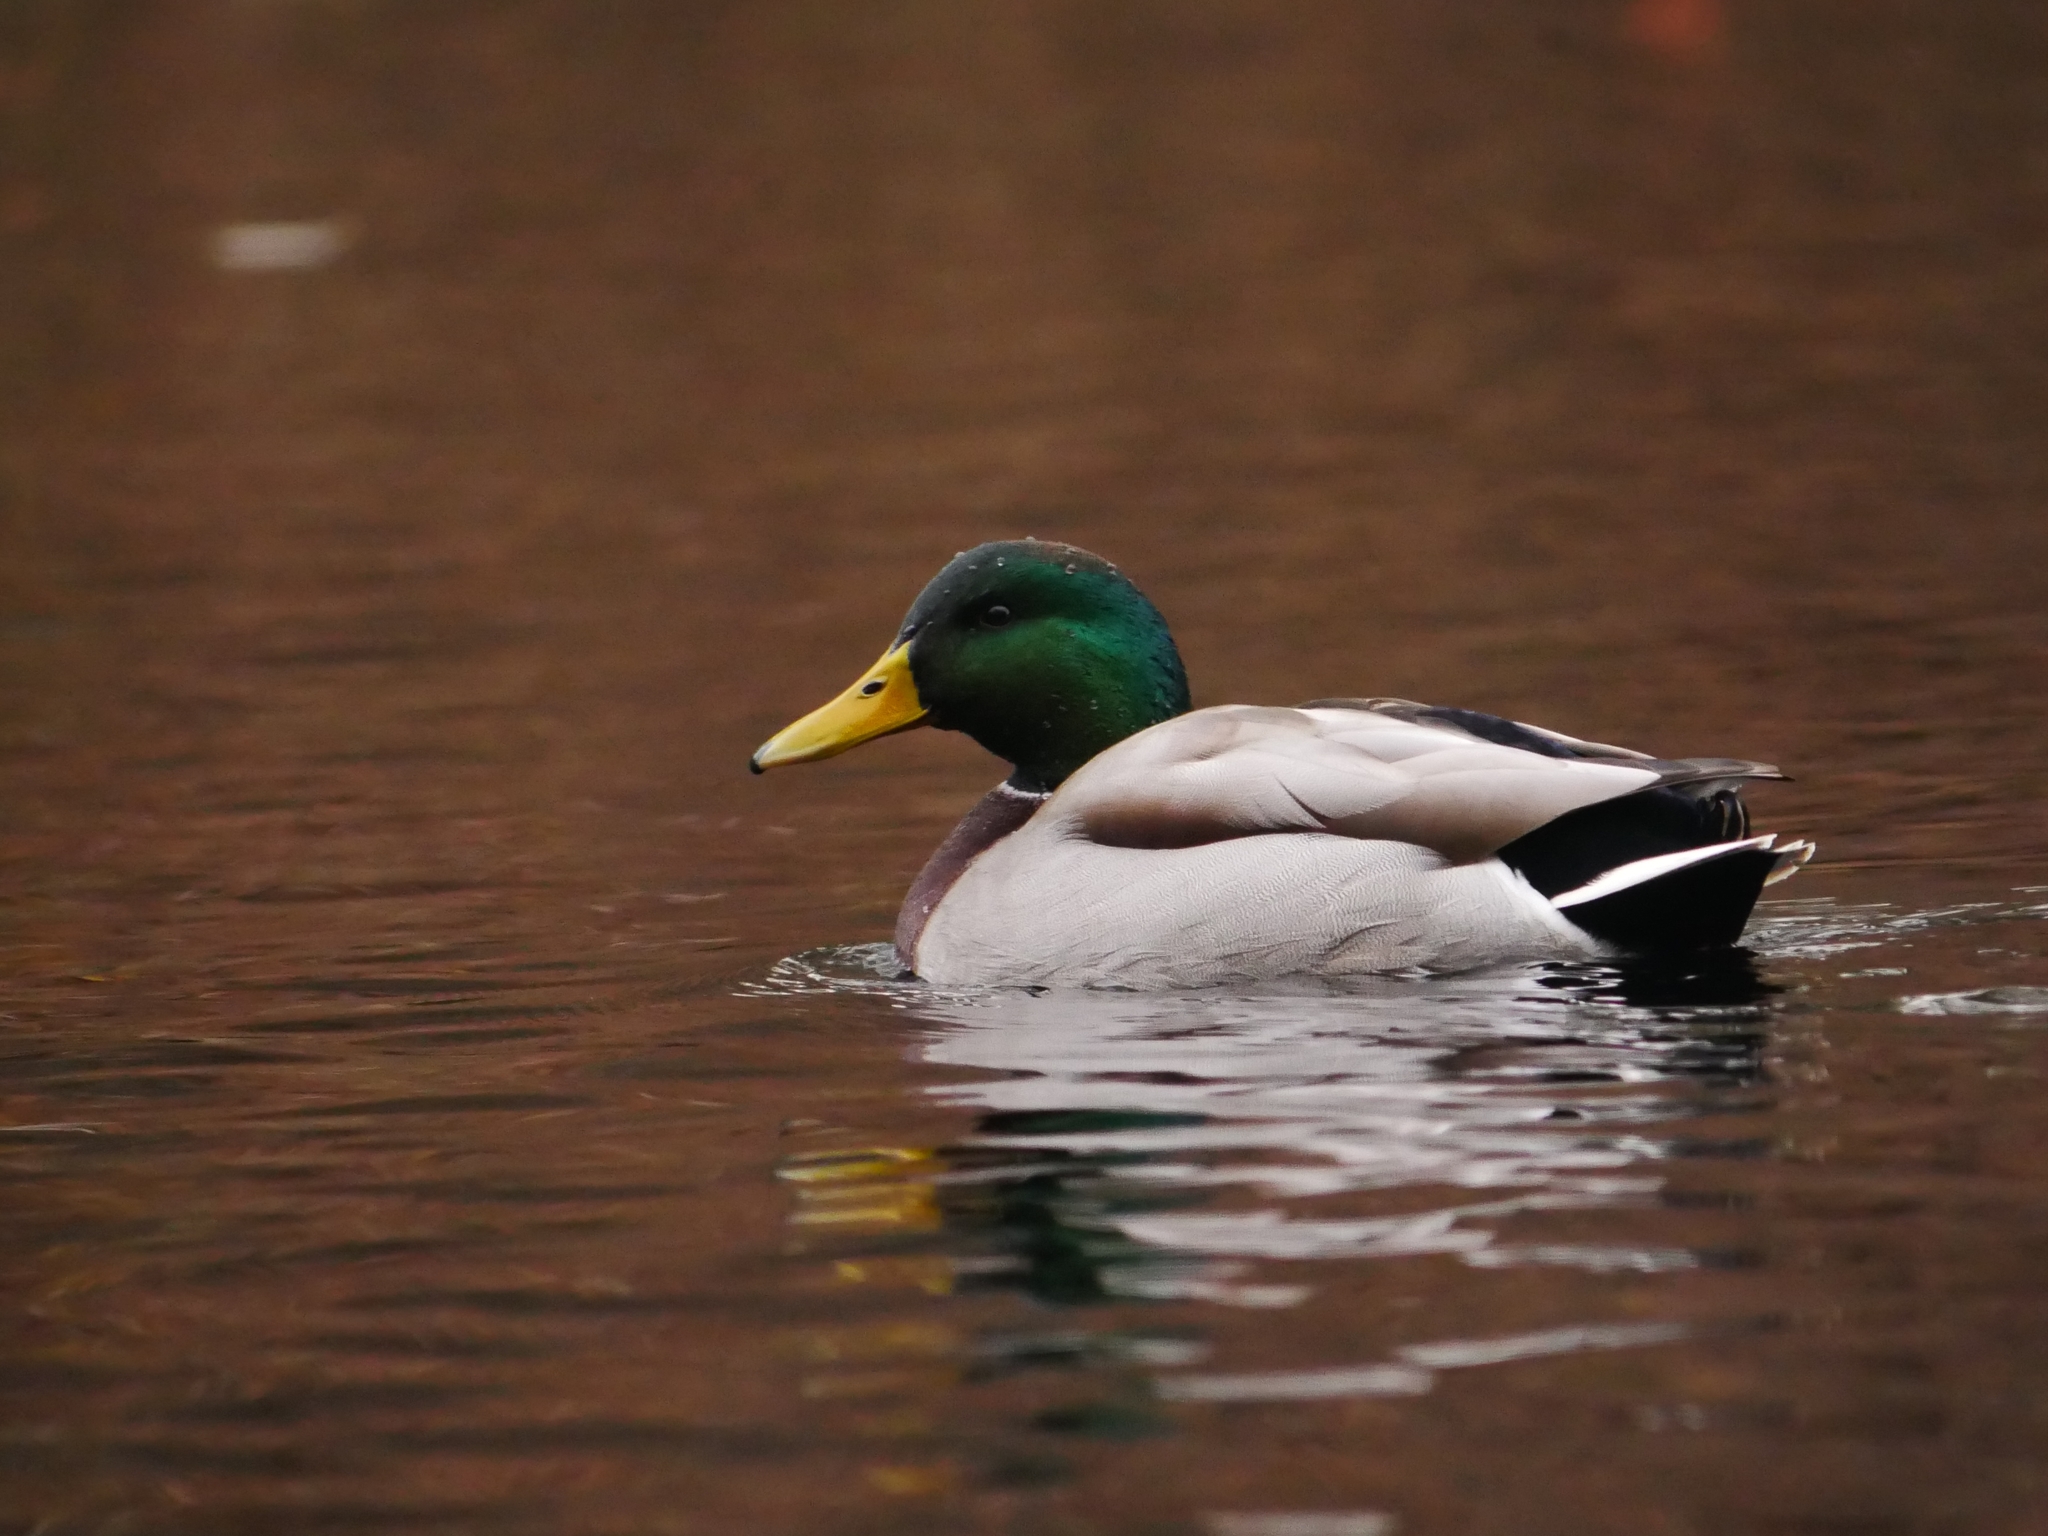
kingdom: Animalia
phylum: Chordata
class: Aves
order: Anseriformes
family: Anatidae
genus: Anas
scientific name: Anas platyrhynchos
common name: Mallard
